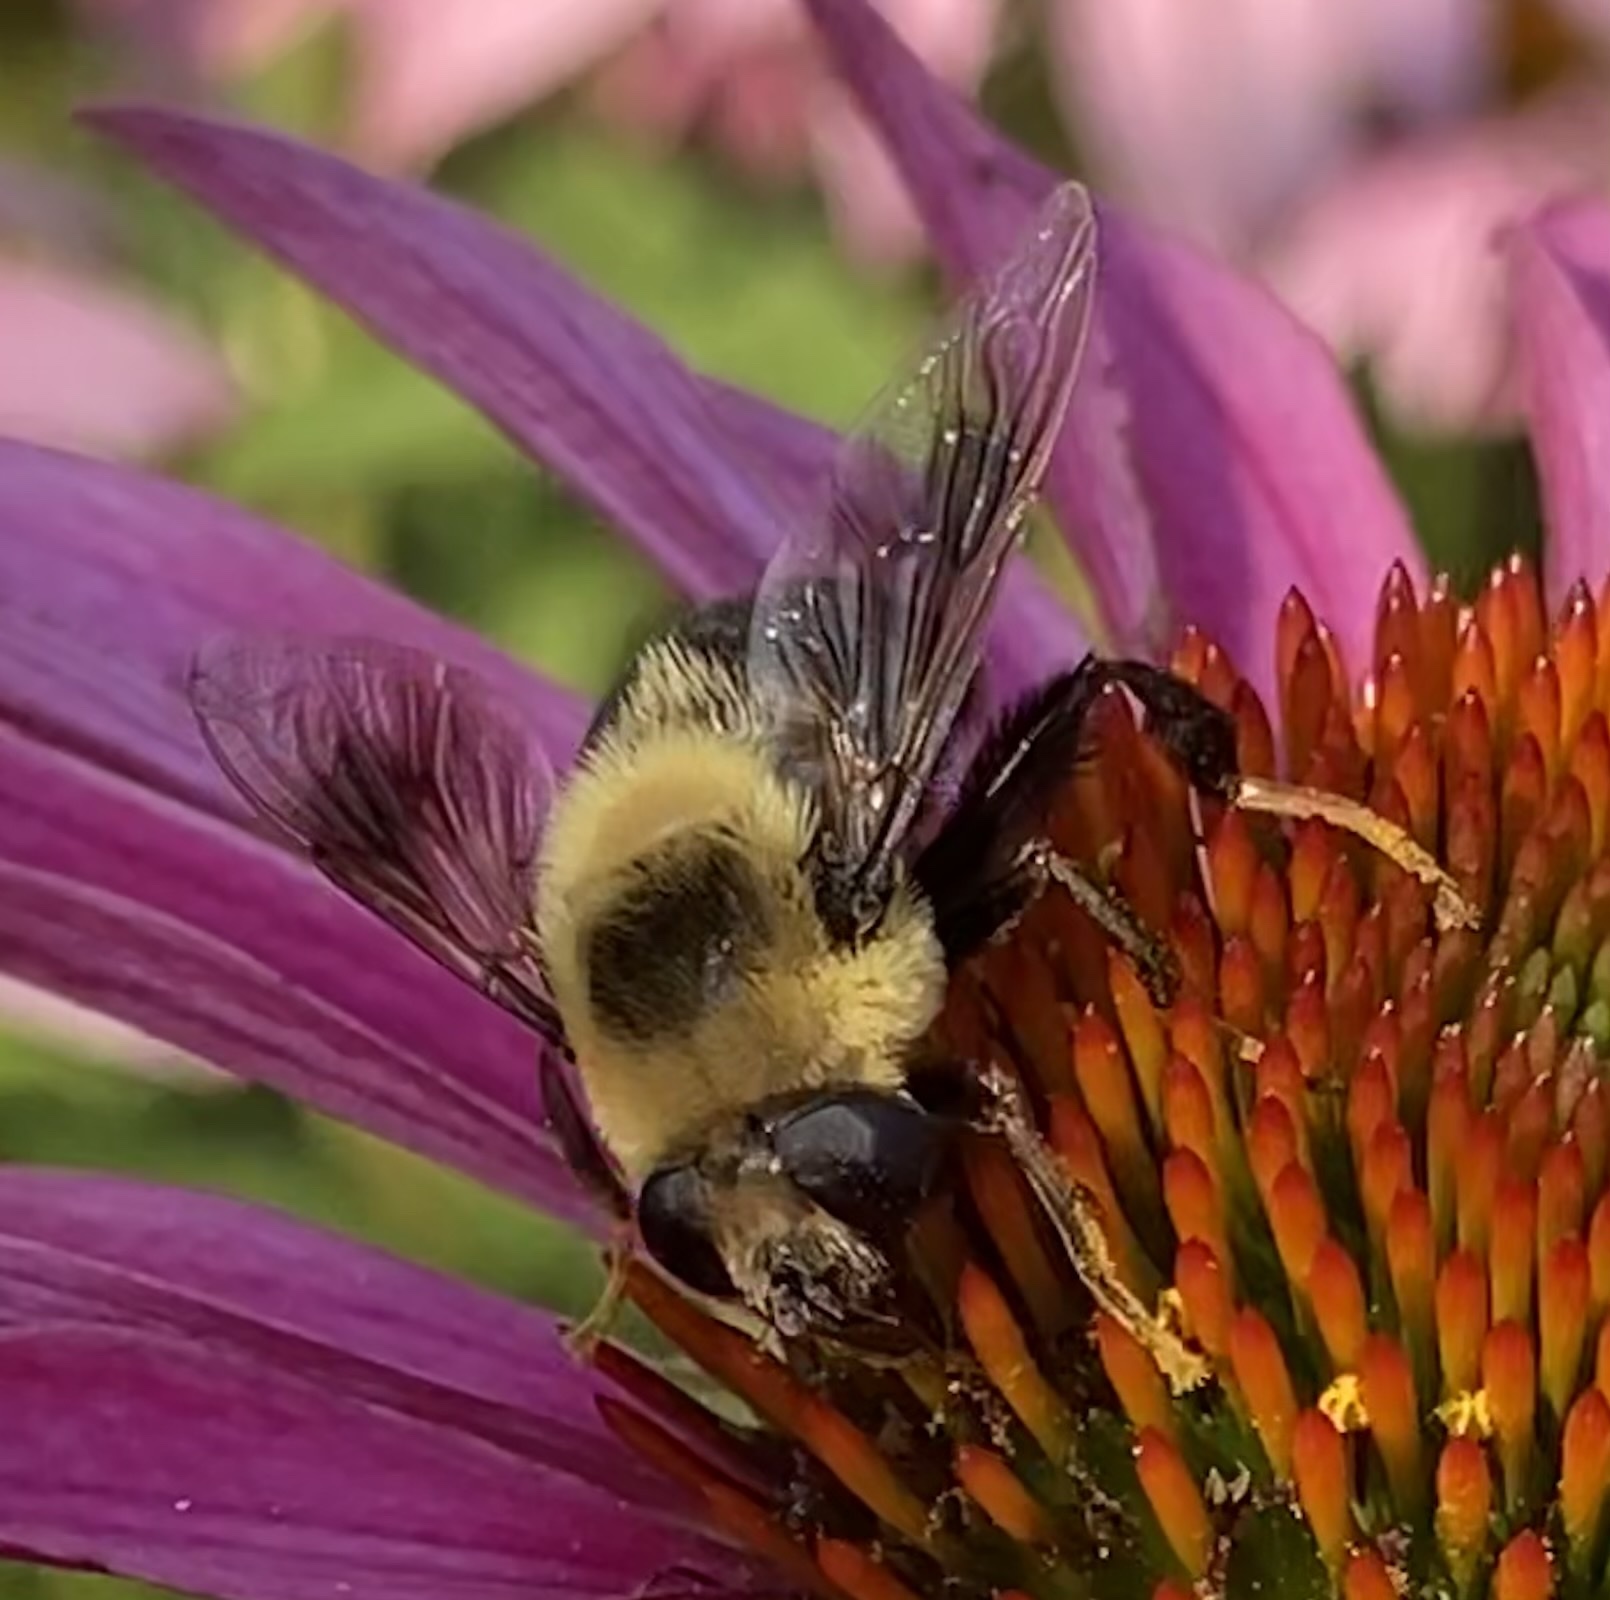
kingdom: Animalia
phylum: Arthropoda
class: Insecta
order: Diptera
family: Syrphidae
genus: Eristalis
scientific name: Eristalis flavipes
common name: Orange-legged drone fly
